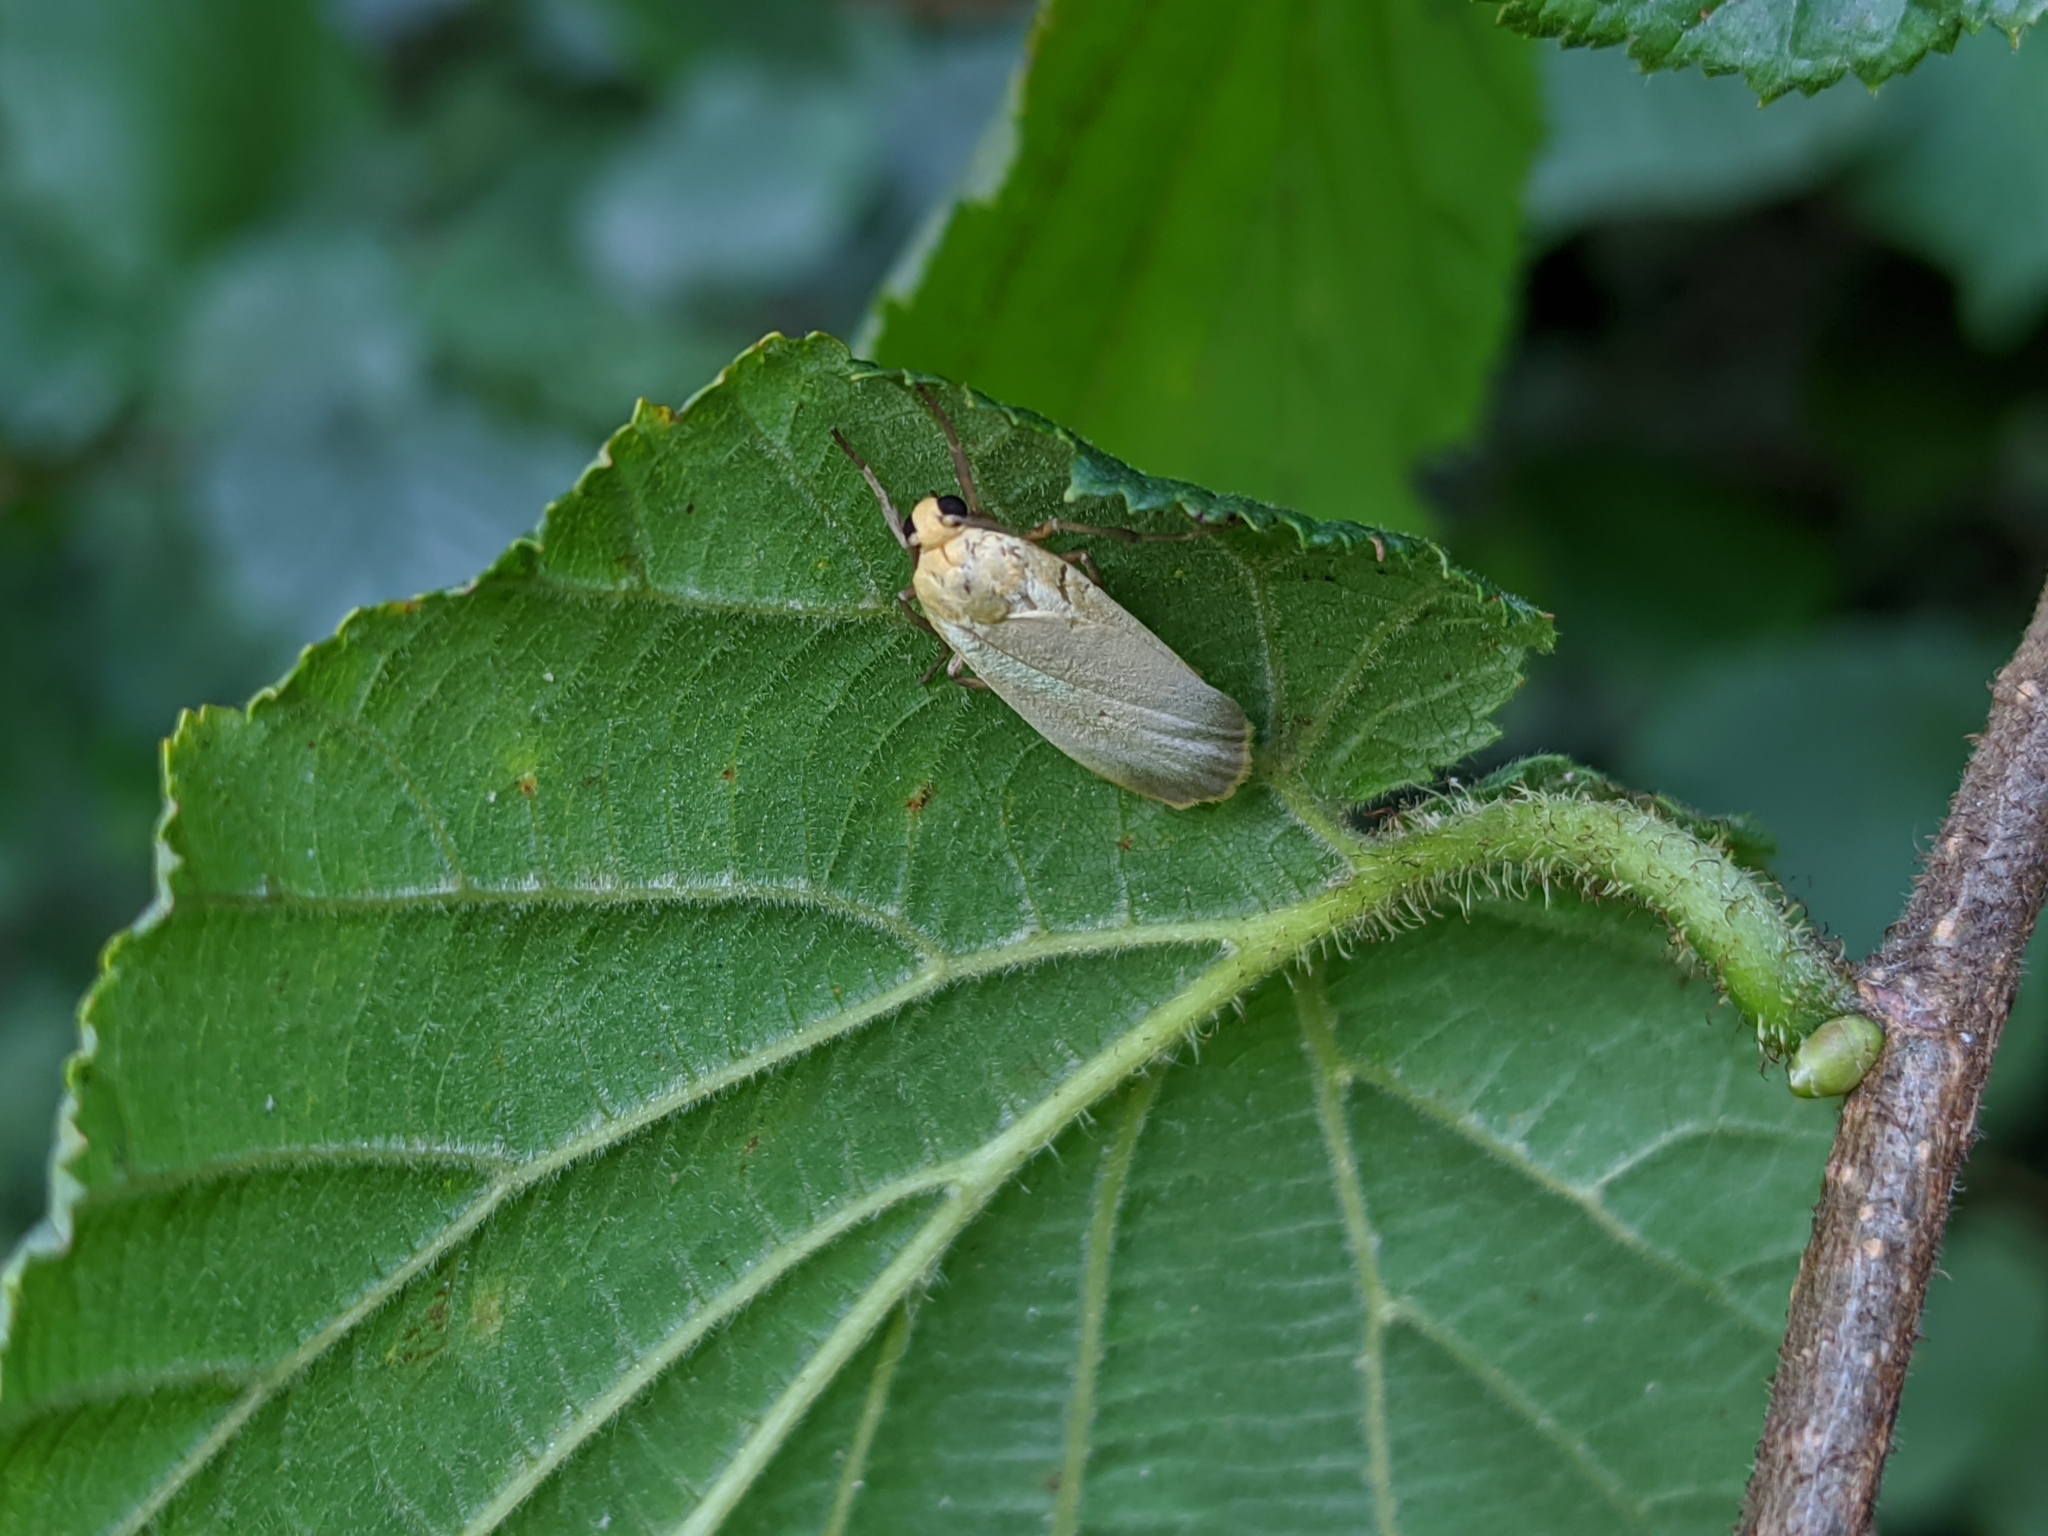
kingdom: Animalia
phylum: Arthropoda
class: Insecta
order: Lepidoptera
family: Erebidae
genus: Katha
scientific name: Katha depressa
